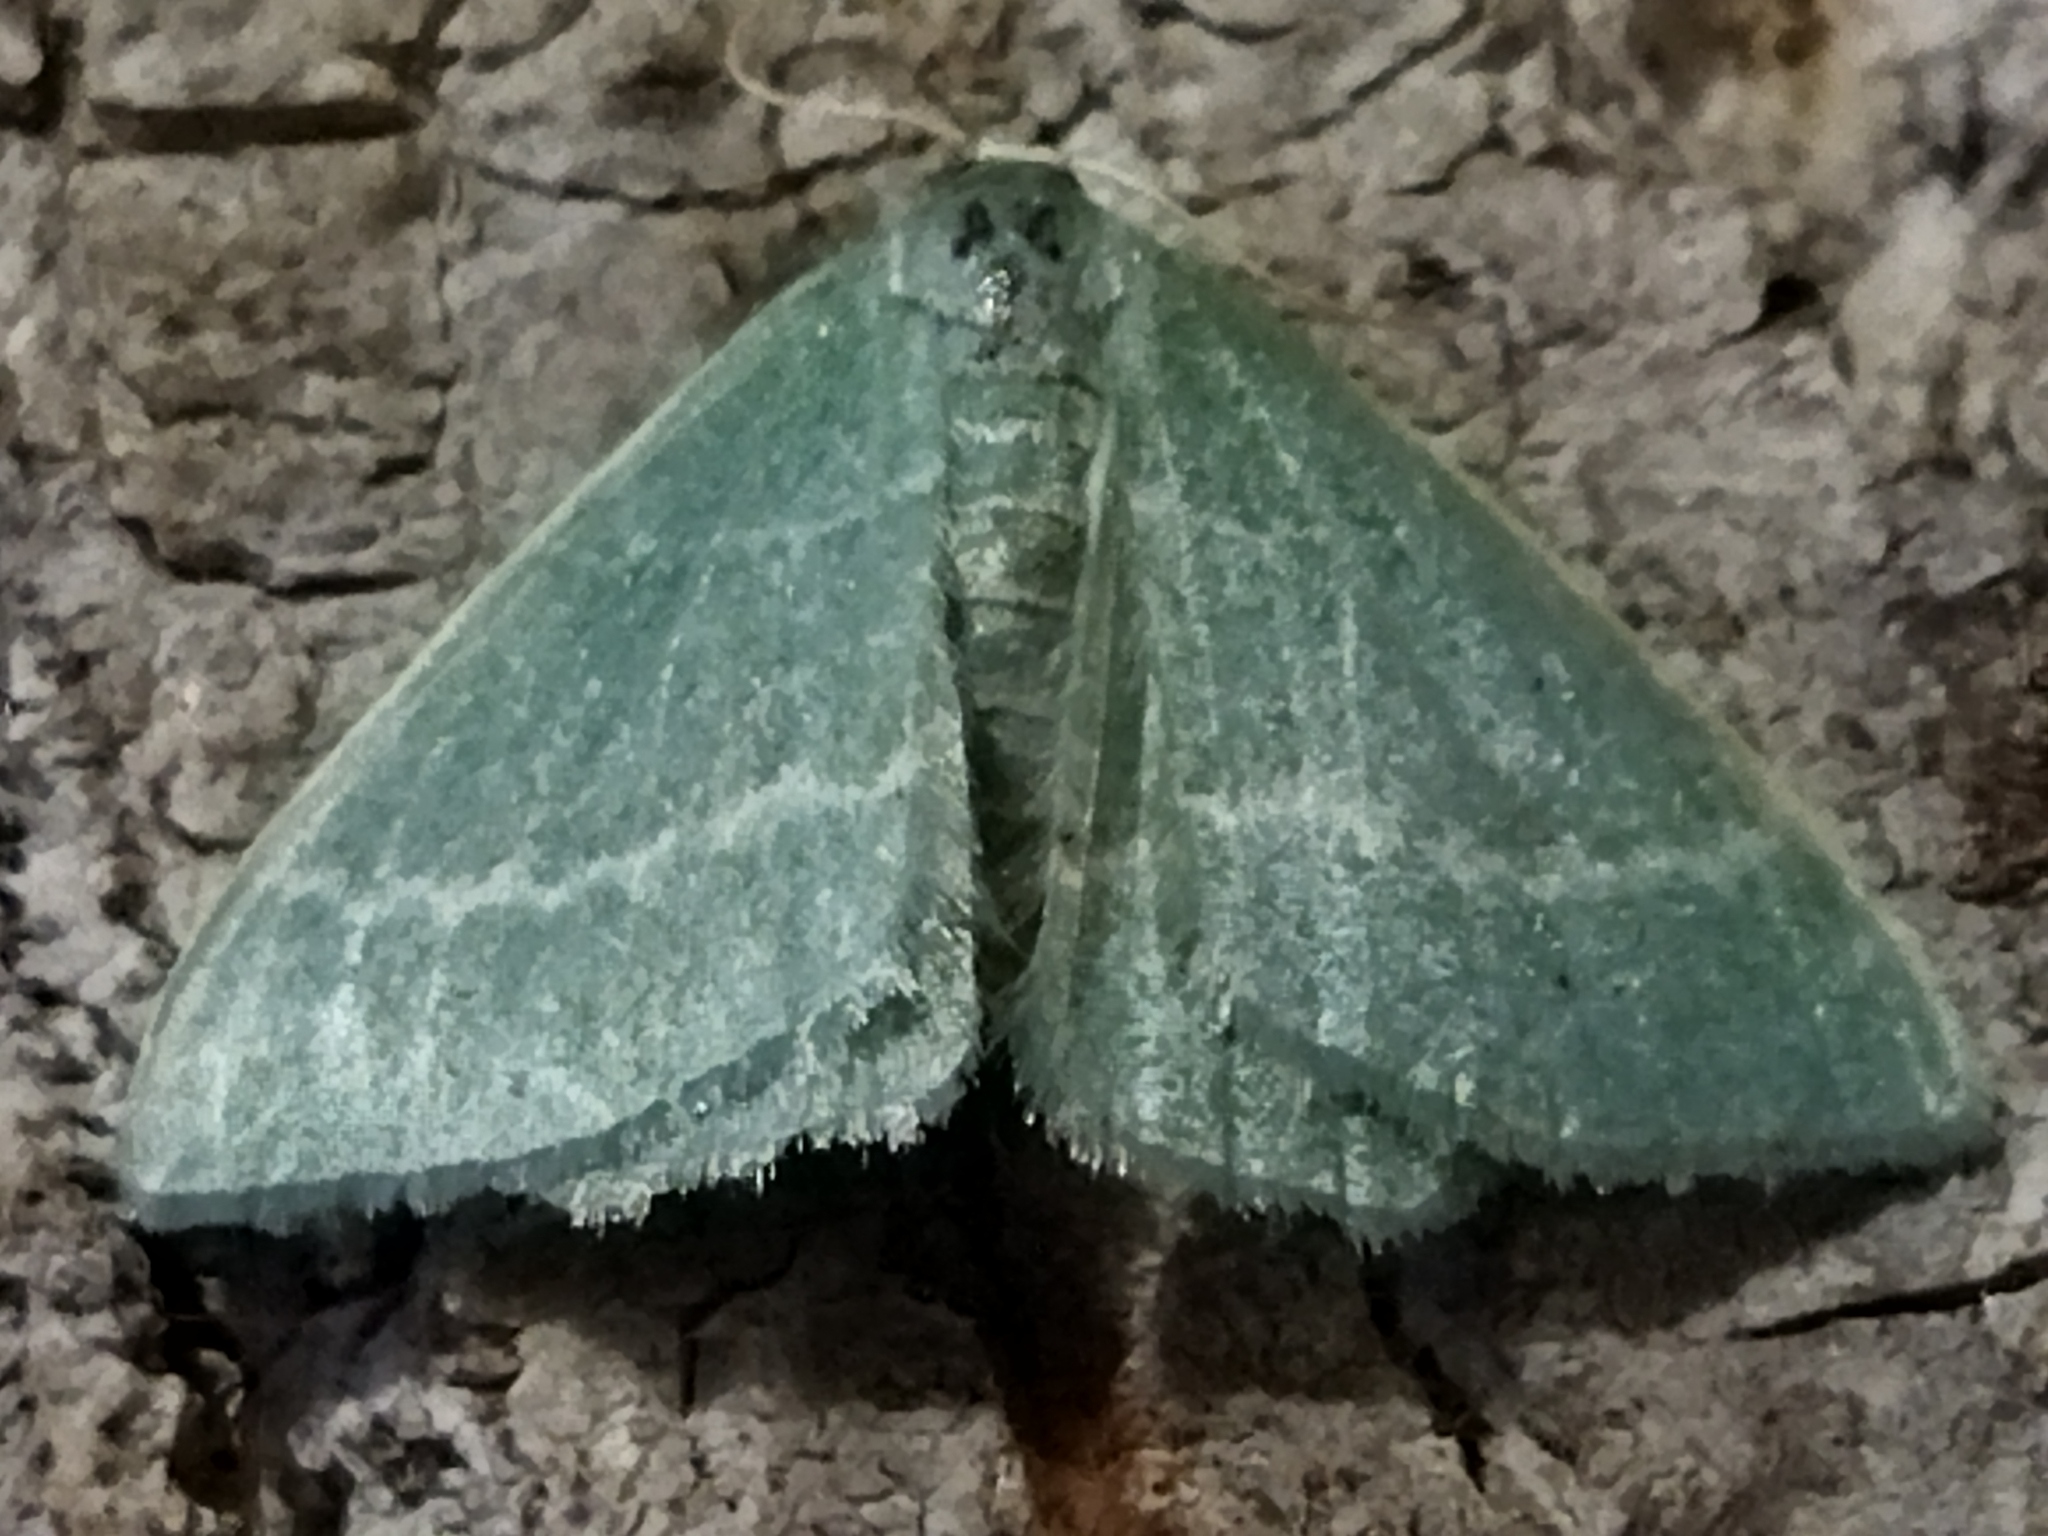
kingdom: Animalia
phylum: Arthropoda
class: Insecta
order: Lepidoptera
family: Geometridae
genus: Chlorissa
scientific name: Chlorissa
